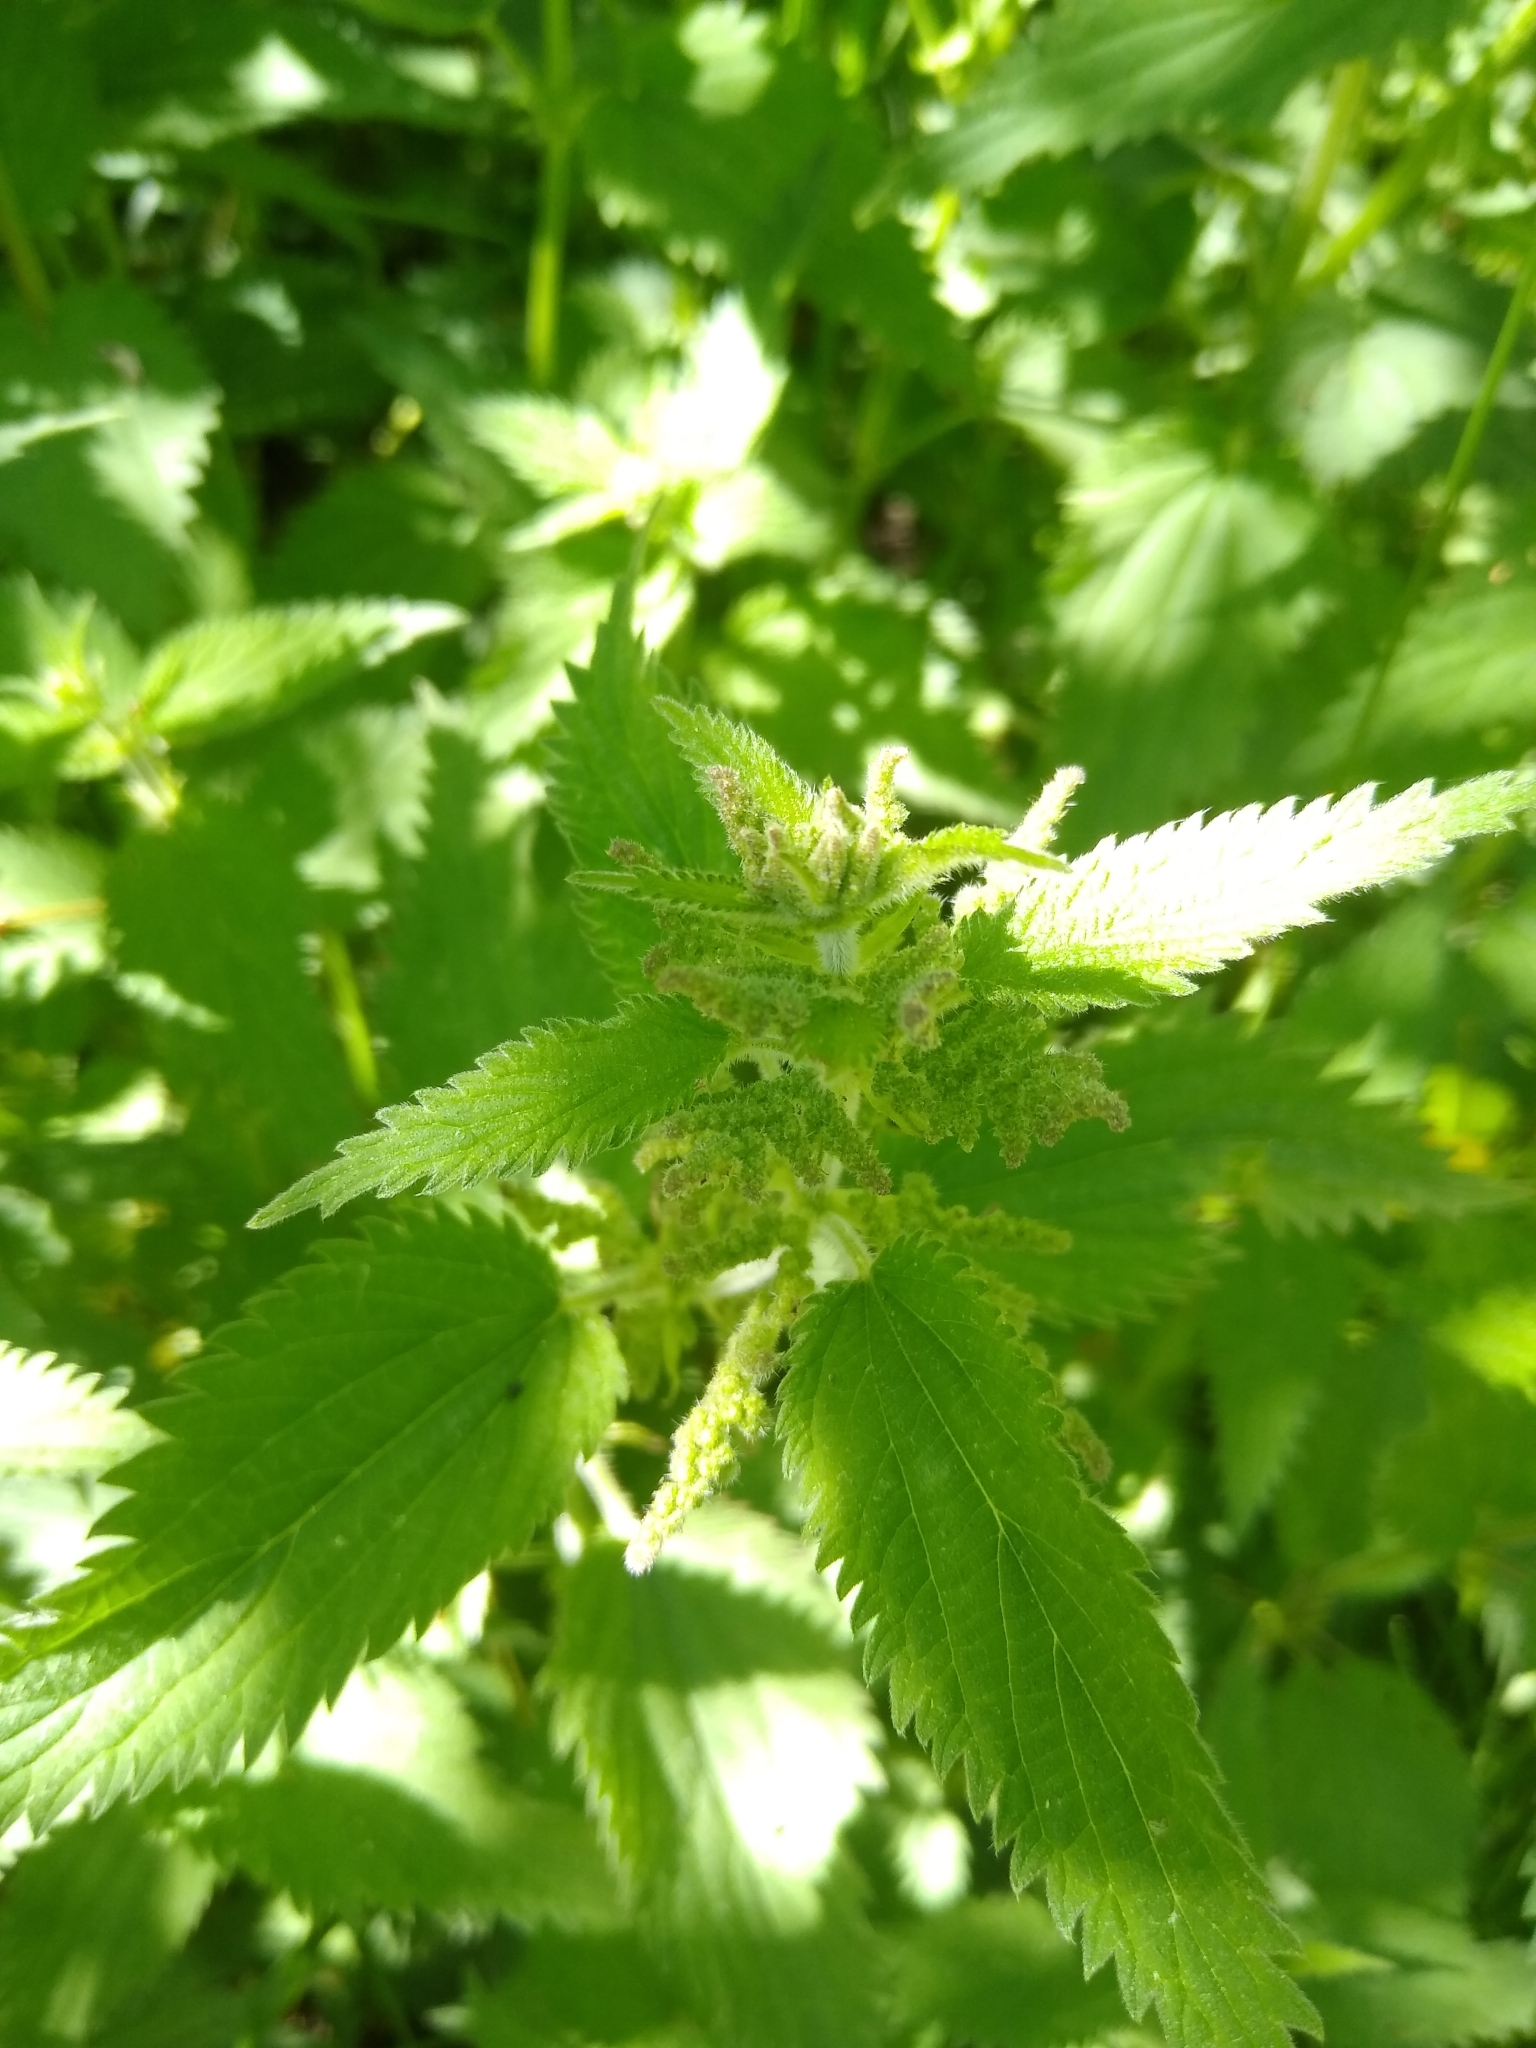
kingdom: Plantae
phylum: Tracheophyta
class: Magnoliopsida
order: Rosales
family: Urticaceae
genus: Urtica
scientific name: Urtica dioica
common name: Common nettle
